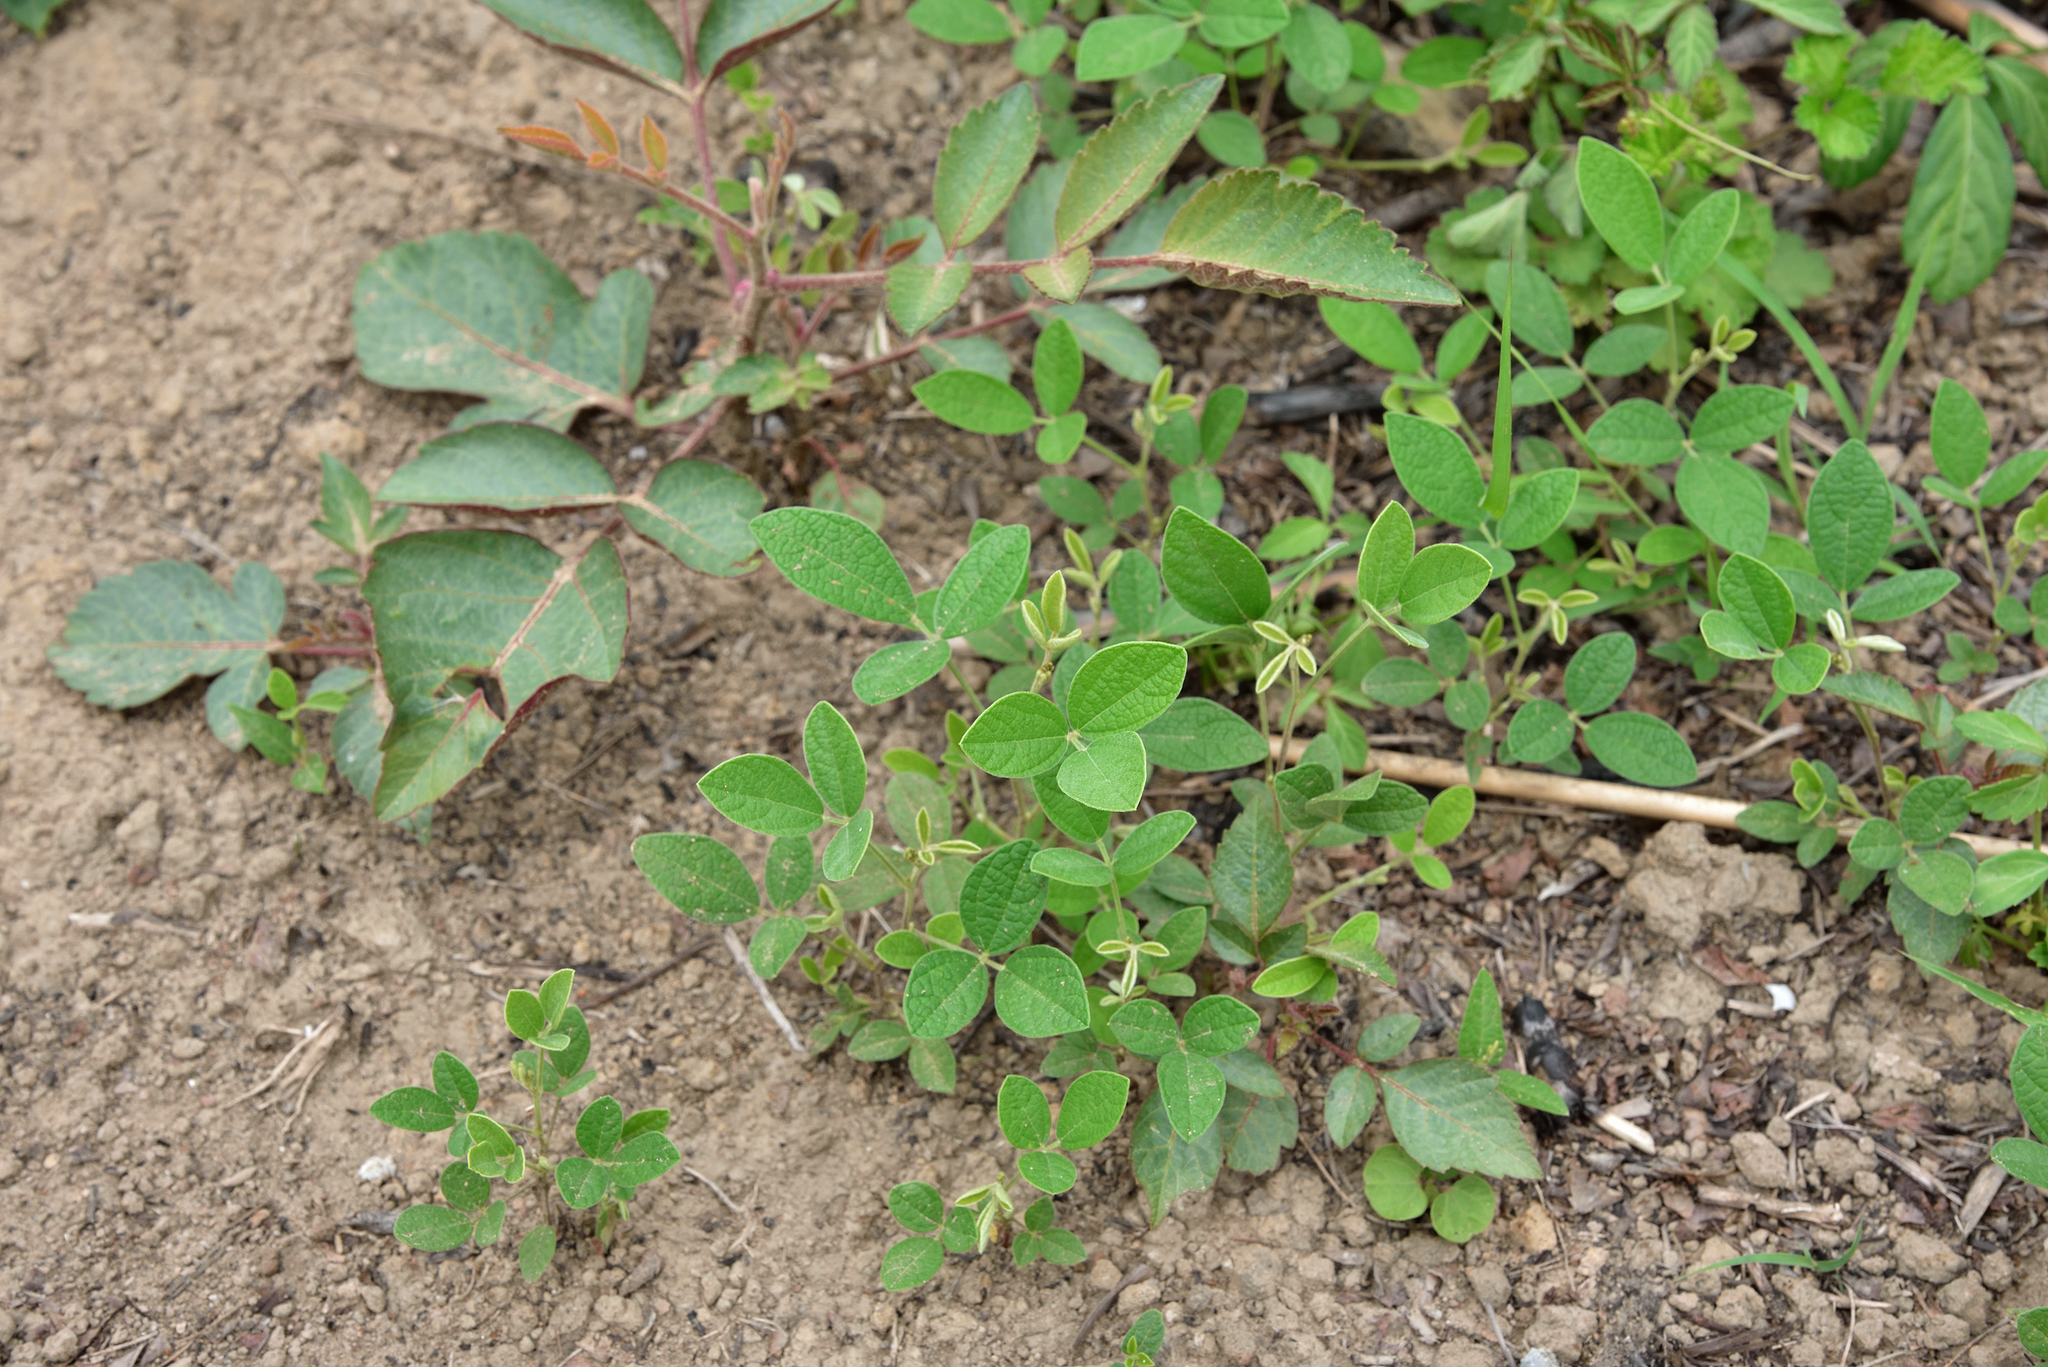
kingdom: Plantae
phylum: Tracheophyta
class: Magnoliopsida
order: Fabales
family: Fabaceae
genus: Cajanus
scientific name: Cajanus scarabaeoides
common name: Showy pigeonpea
